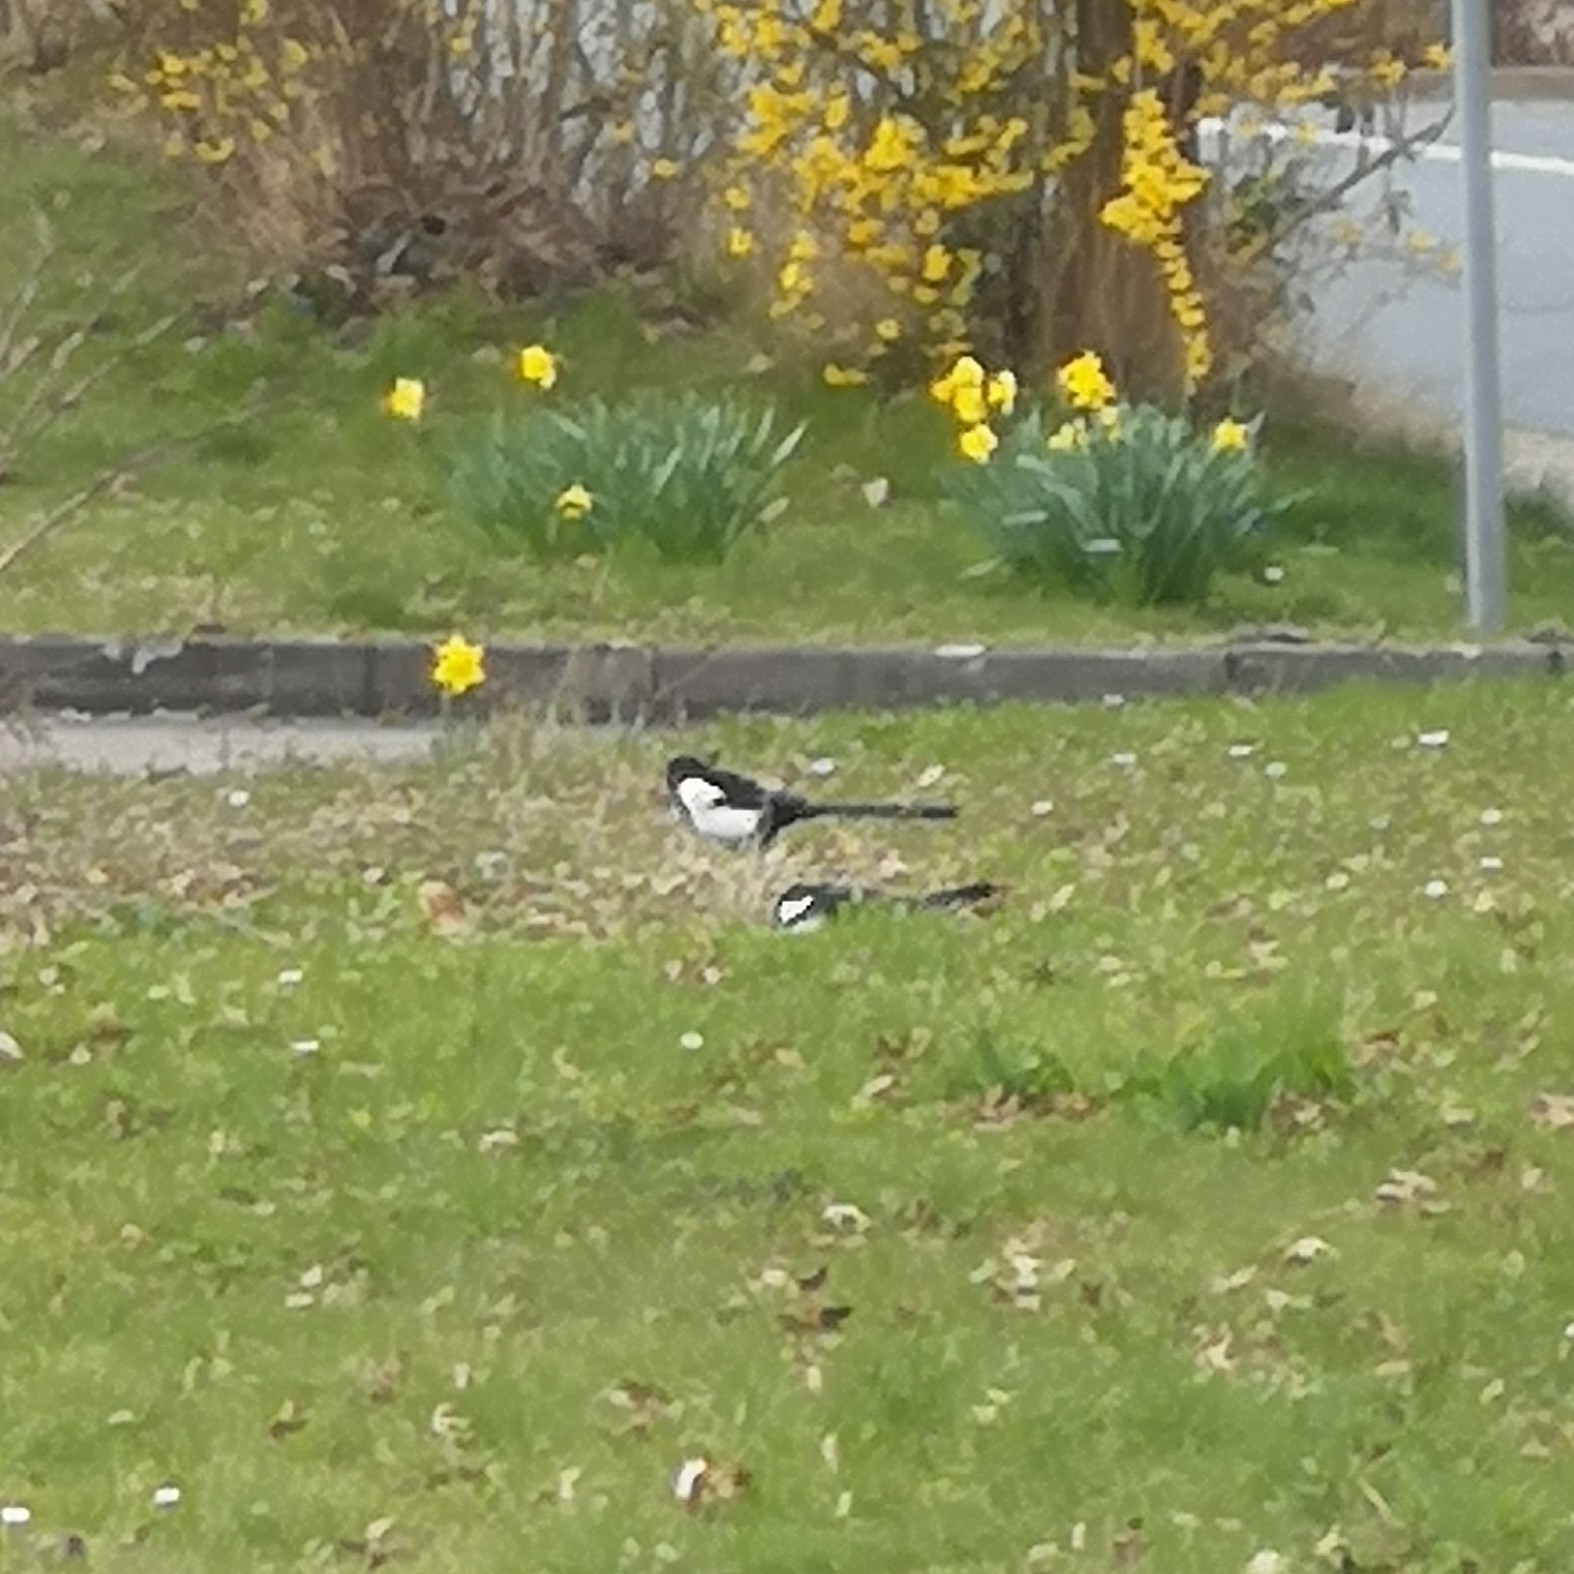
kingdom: Animalia
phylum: Chordata
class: Aves
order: Passeriformes
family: Corvidae
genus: Pica
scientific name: Pica pica
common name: Eurasian magpie
